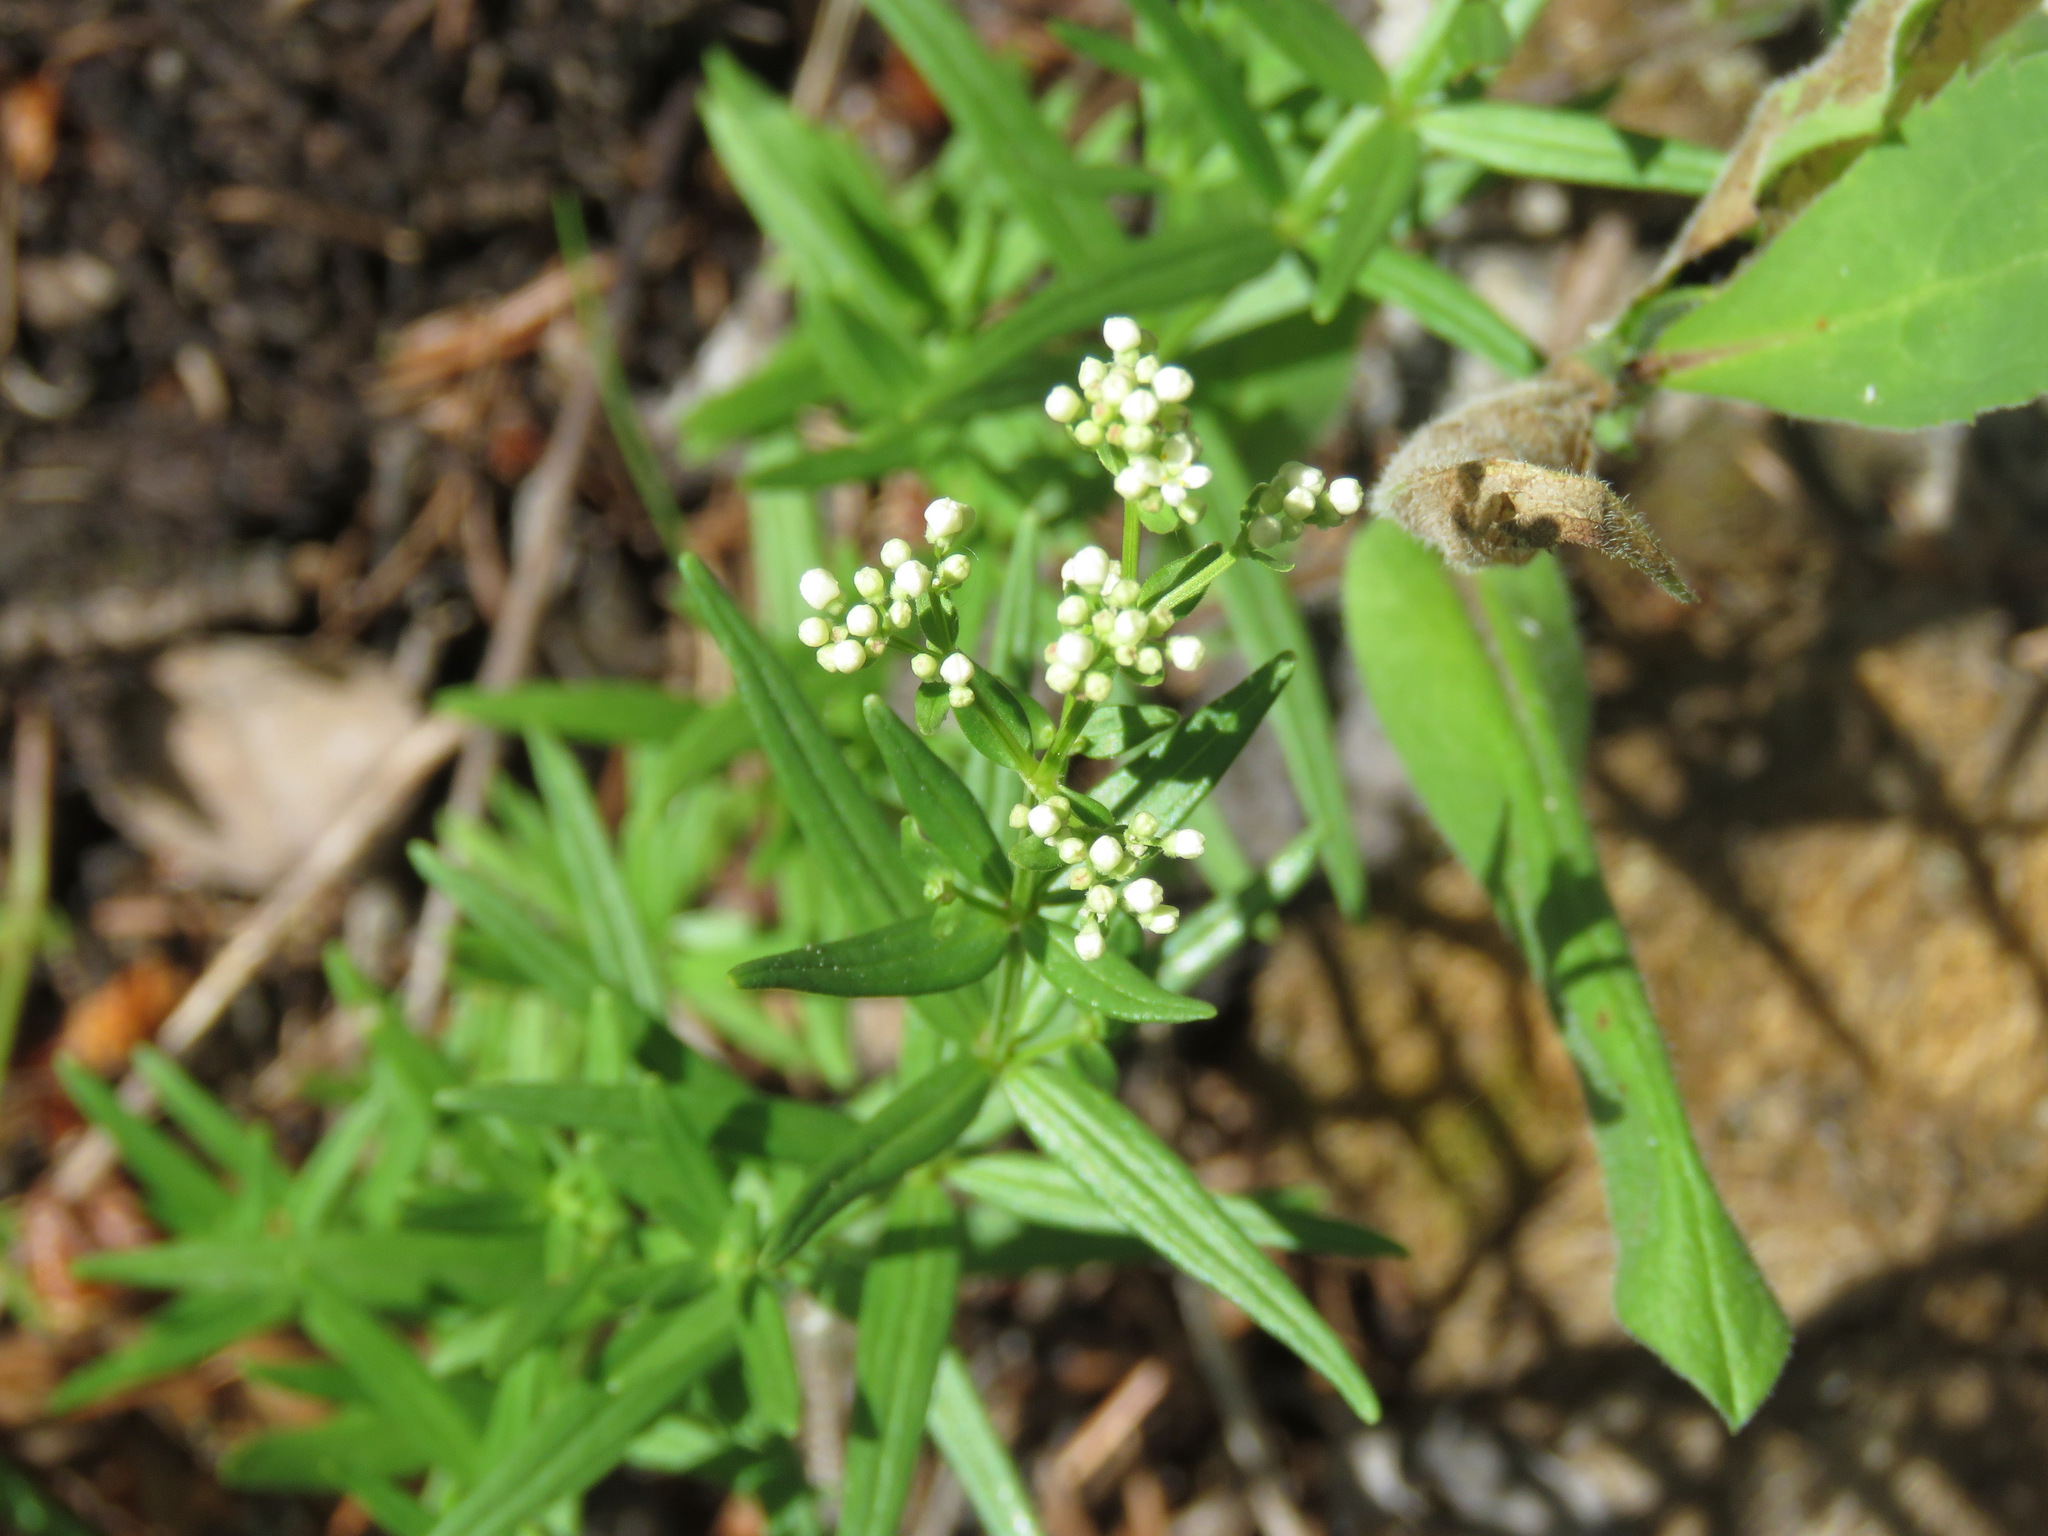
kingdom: Plantae
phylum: Tracheophyta
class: Magnoliopsida
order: Gentianales
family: Rubiaceae
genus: Galium
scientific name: Galium boreale
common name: Northern bedstraw
